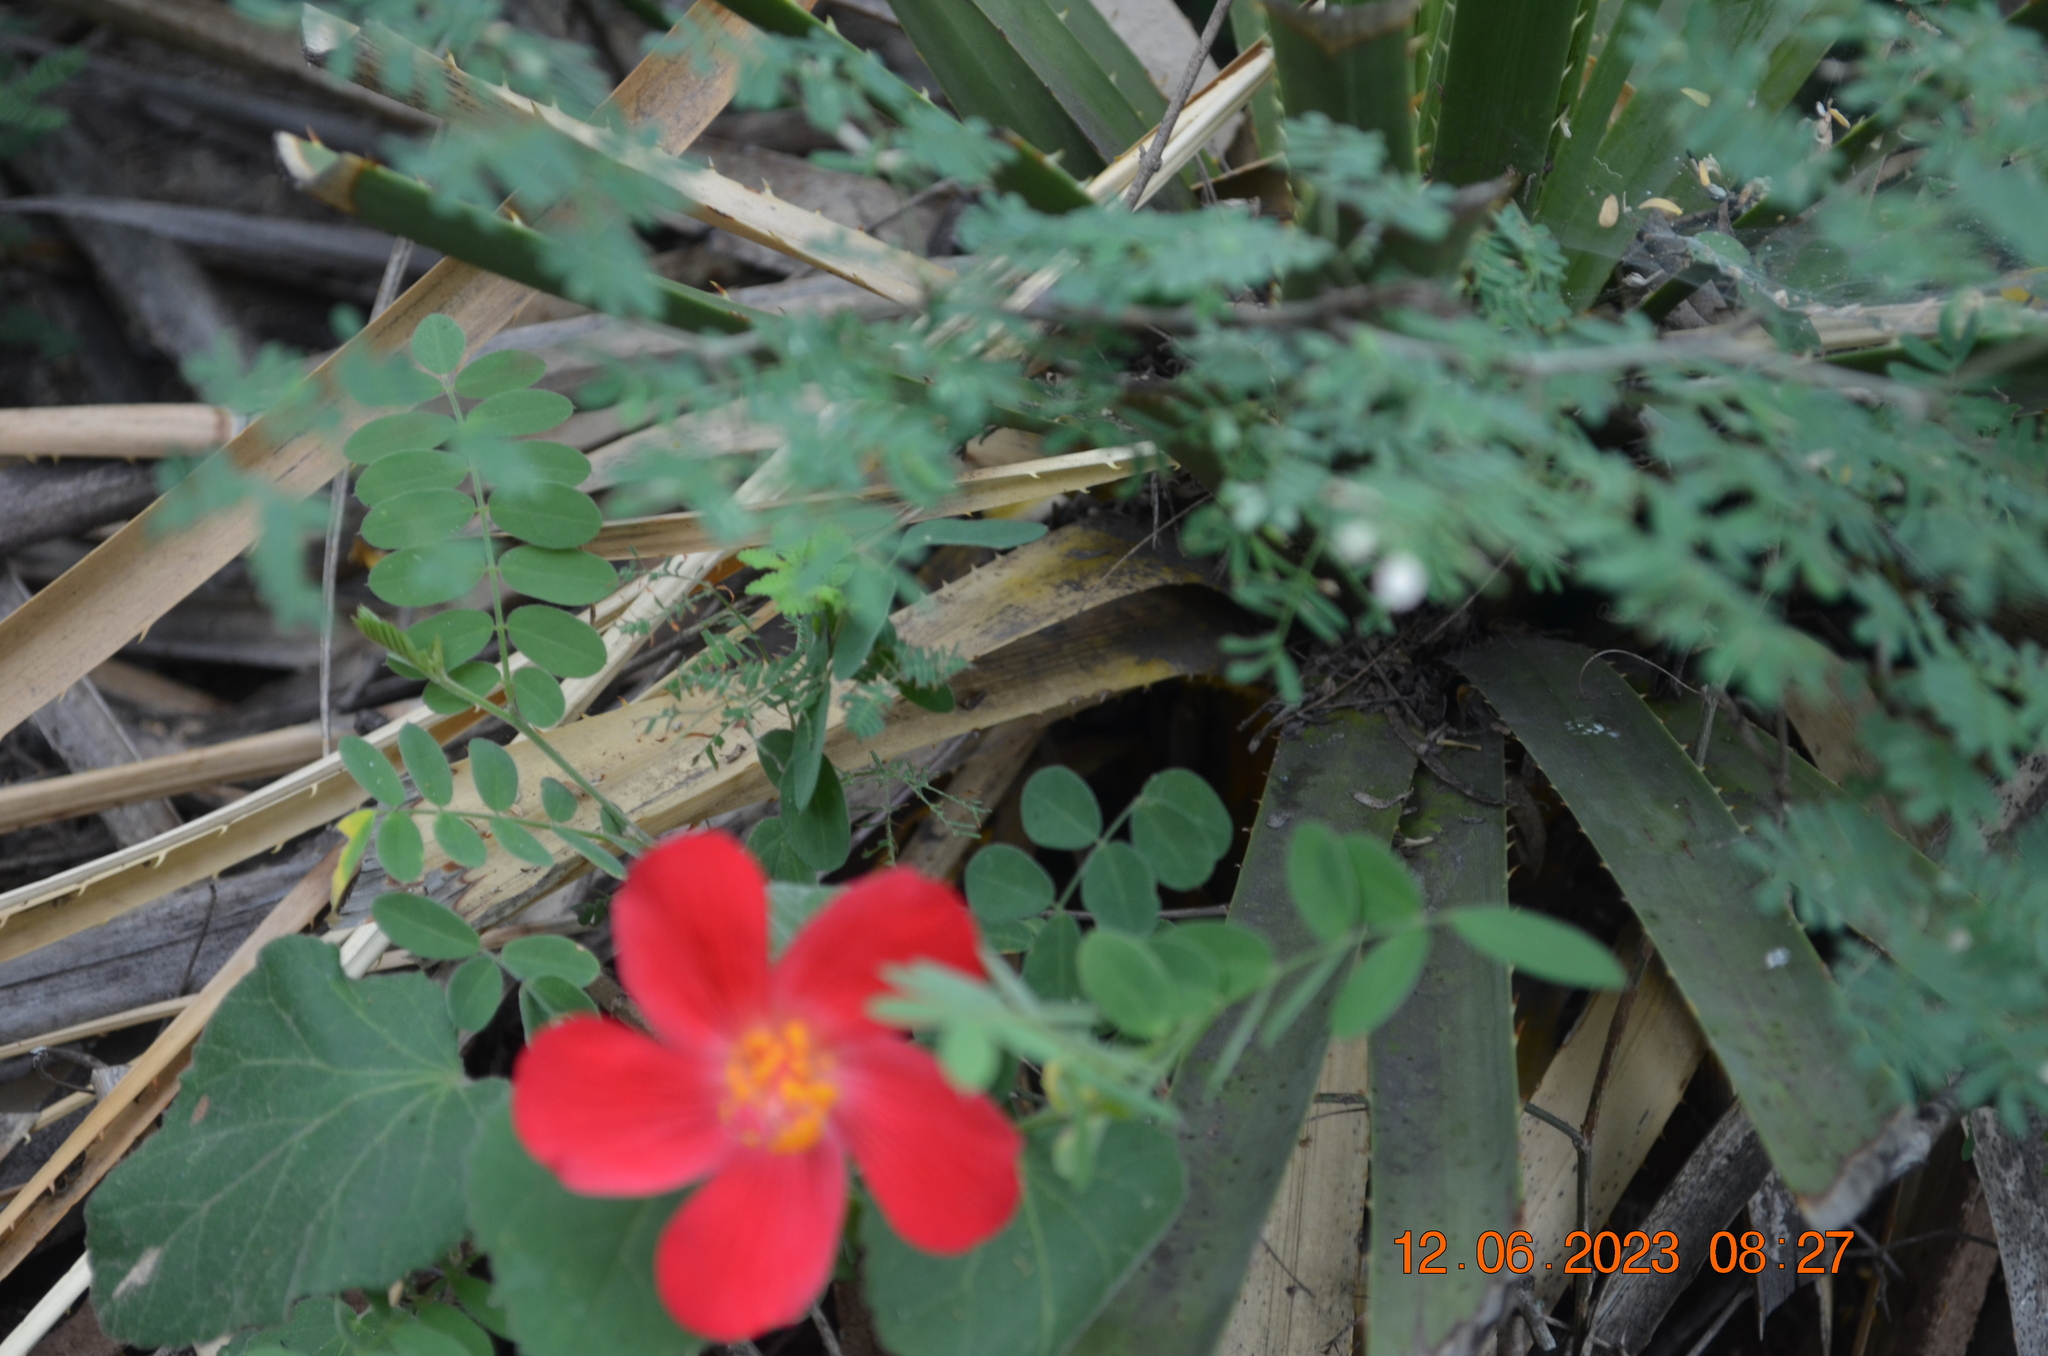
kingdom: Plantae
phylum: Tracheophyta
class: Magnoliopsida
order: Malvales
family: Malvaceae
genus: Hibiscus
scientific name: Hibiscus martianus
